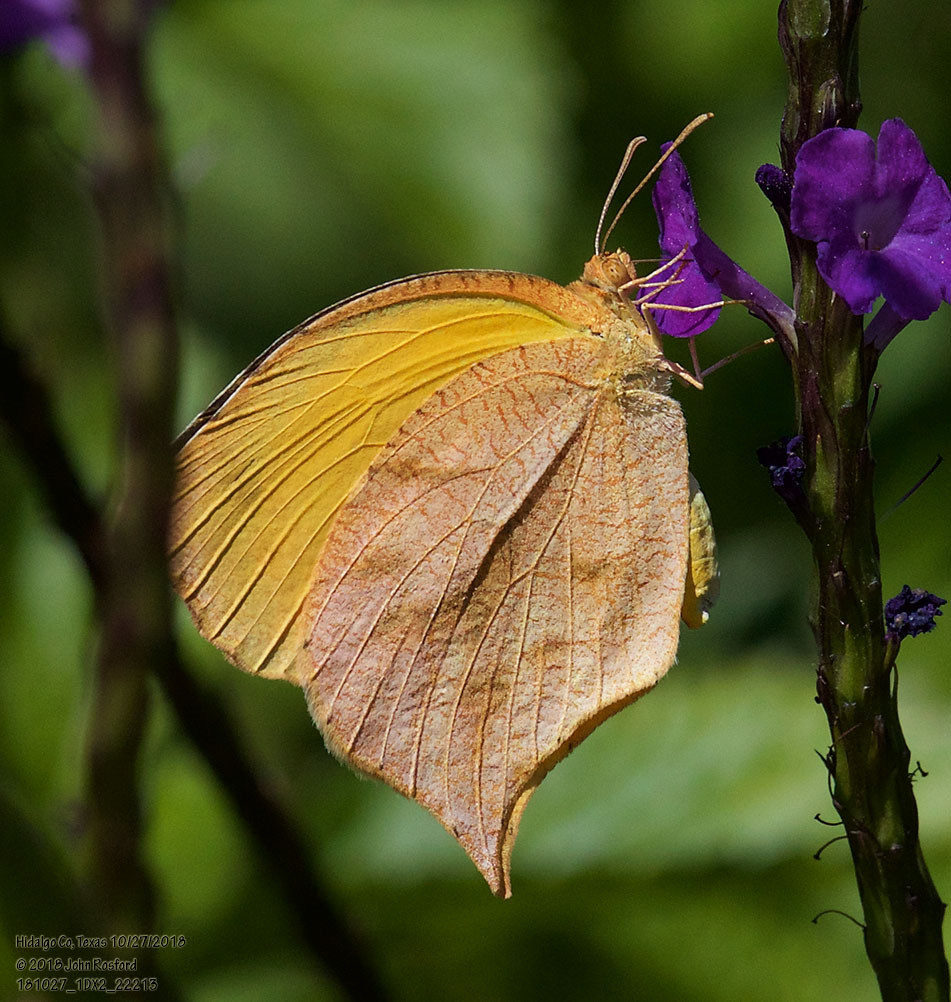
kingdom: Animalia
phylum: Arthropoda
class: Insecta
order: Lepidoptera
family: Pieridae
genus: Pyrisitia
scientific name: Pyrisitia proterpia
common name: Tailed orange
